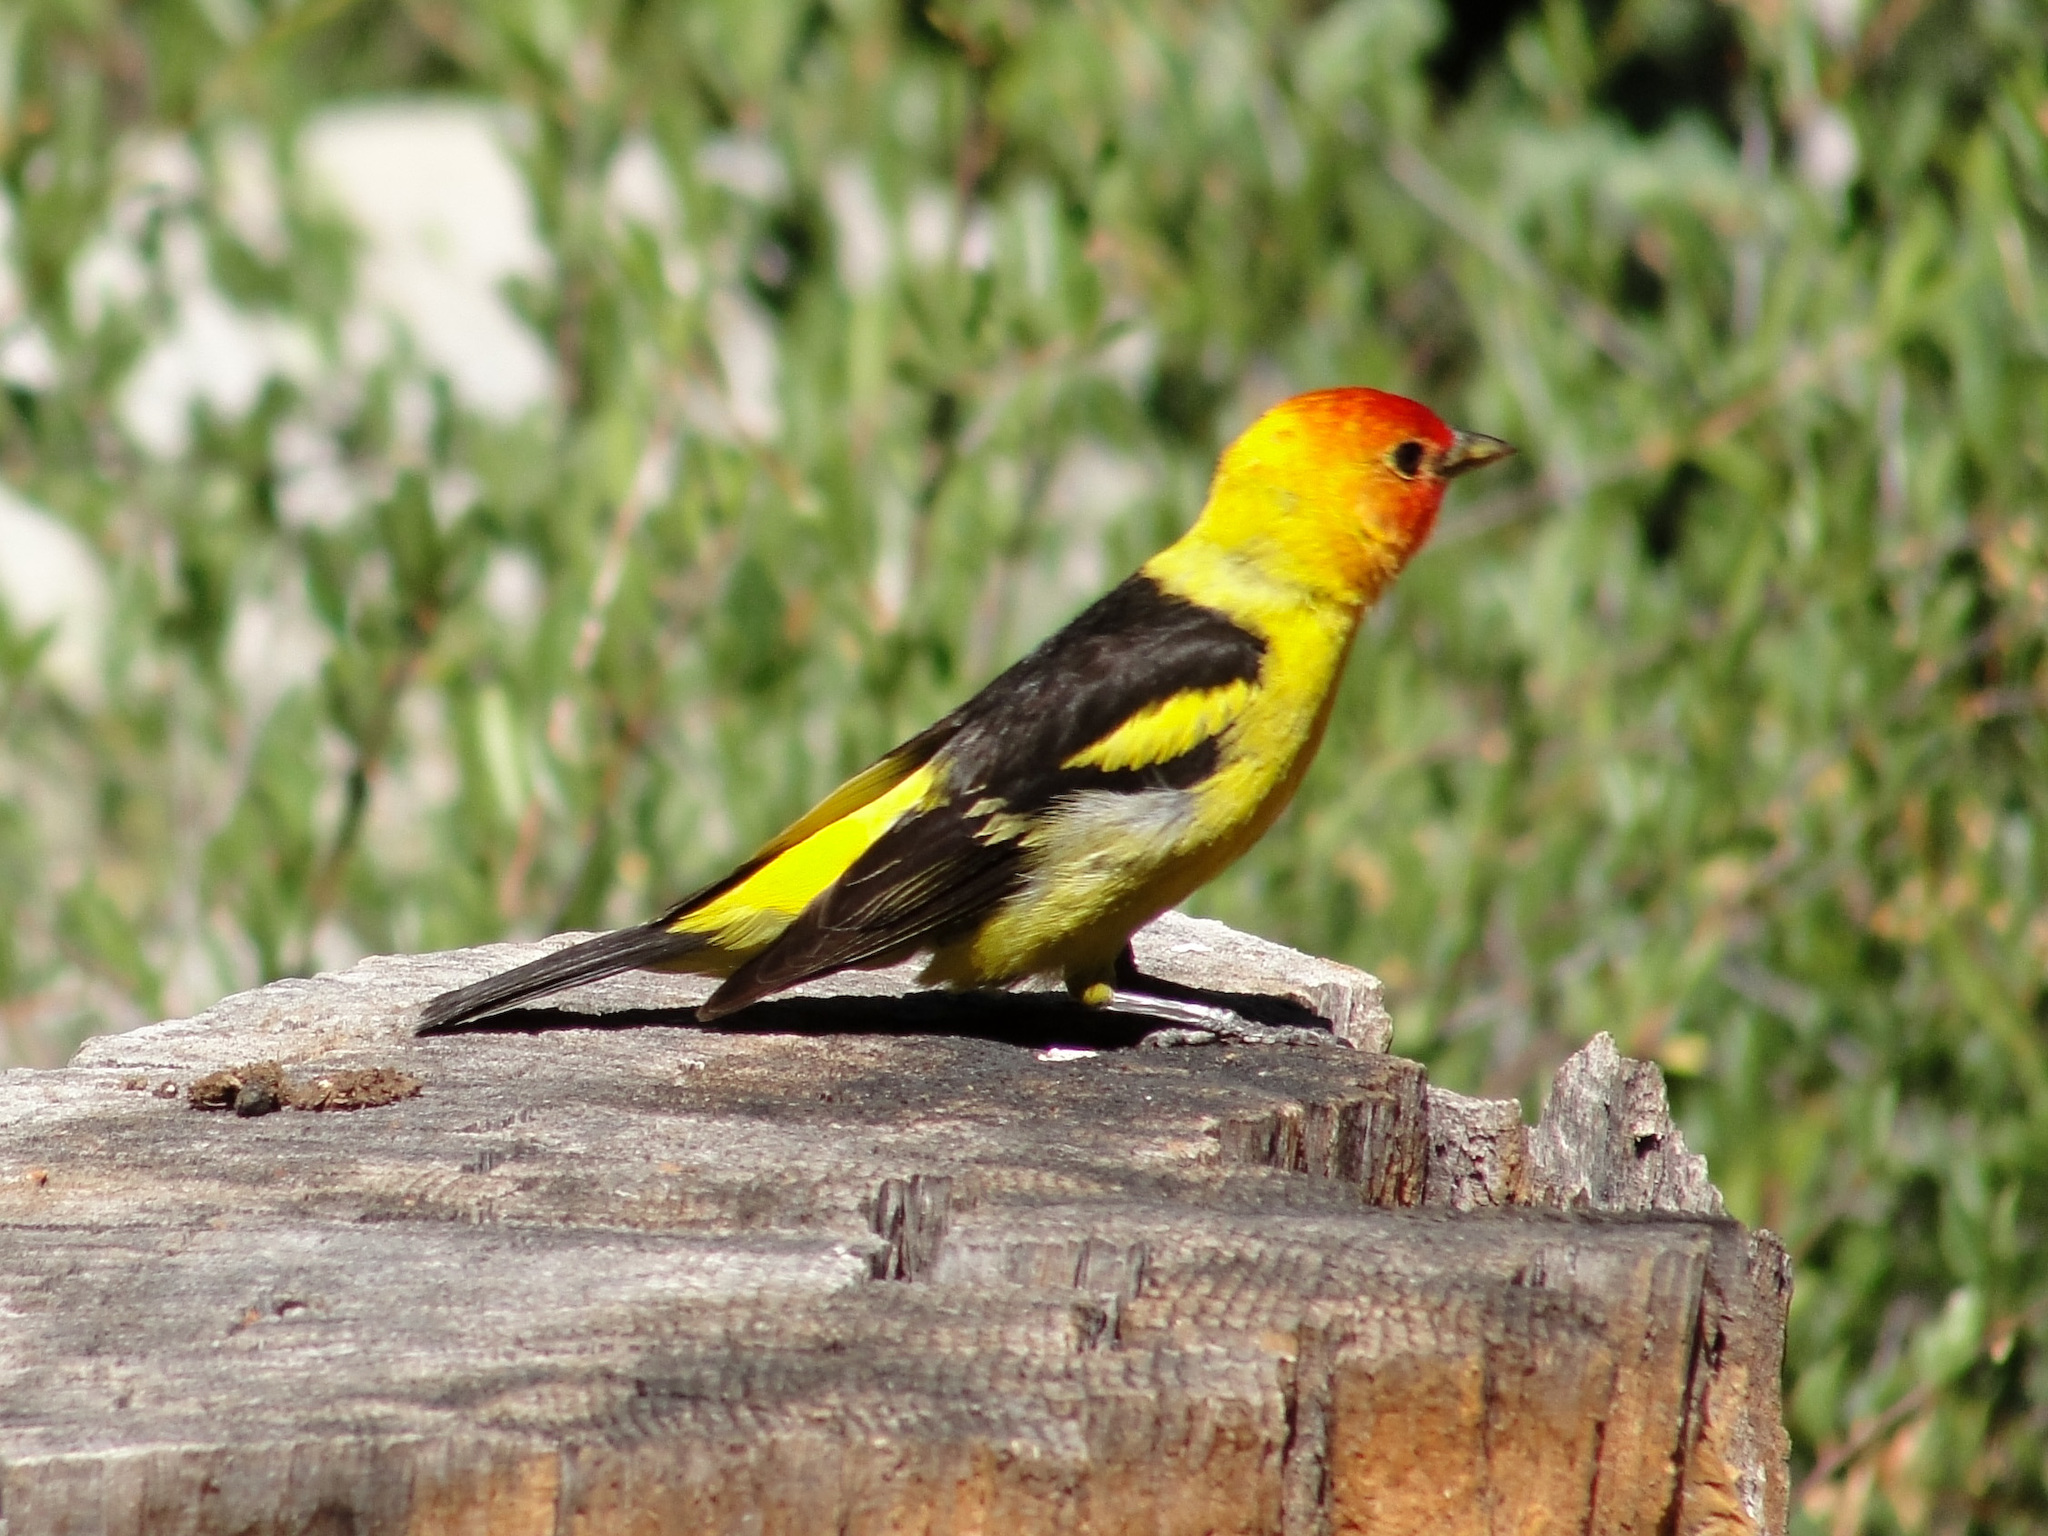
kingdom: Animalia
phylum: Chordata
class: Aves
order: Passeriformes
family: Cardinalidae
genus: Piranga
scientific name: Piranga ludoviciana
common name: Western tanager
